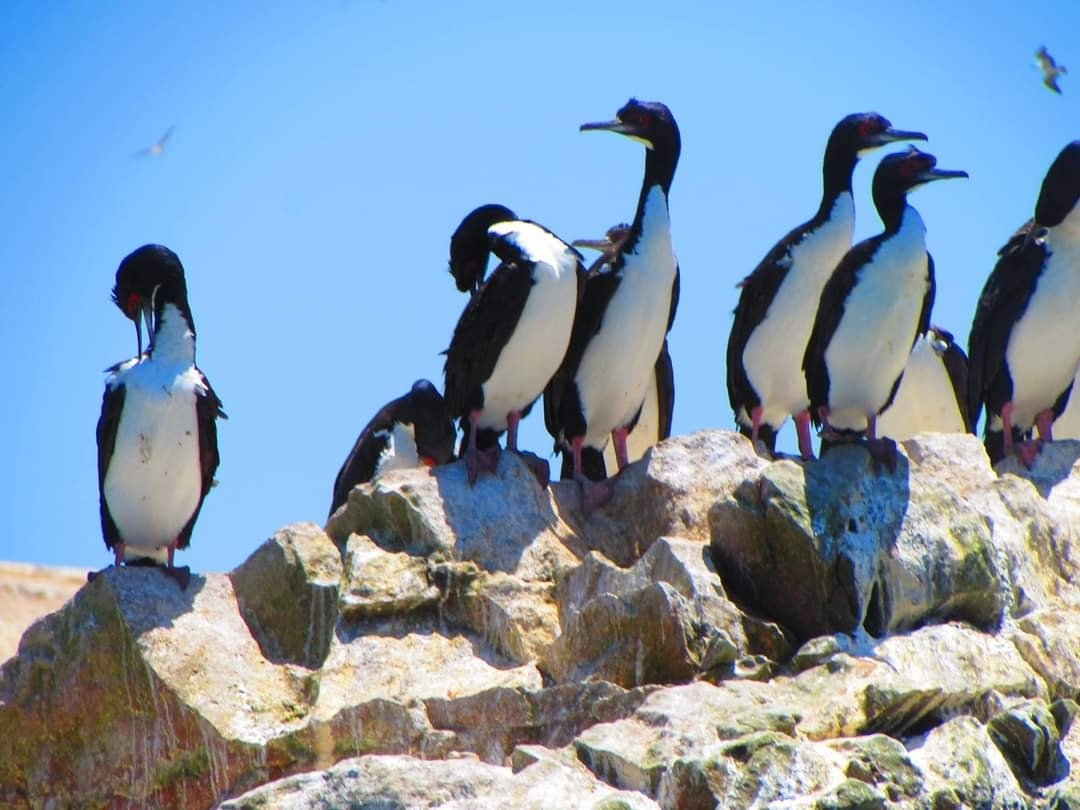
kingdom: Animalia
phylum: Chordata
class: Aves
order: Suliformes
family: Phalacrocoracidae
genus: Leucocarbo
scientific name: Leucocarbo bougainvillii
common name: Guanay cormorant
